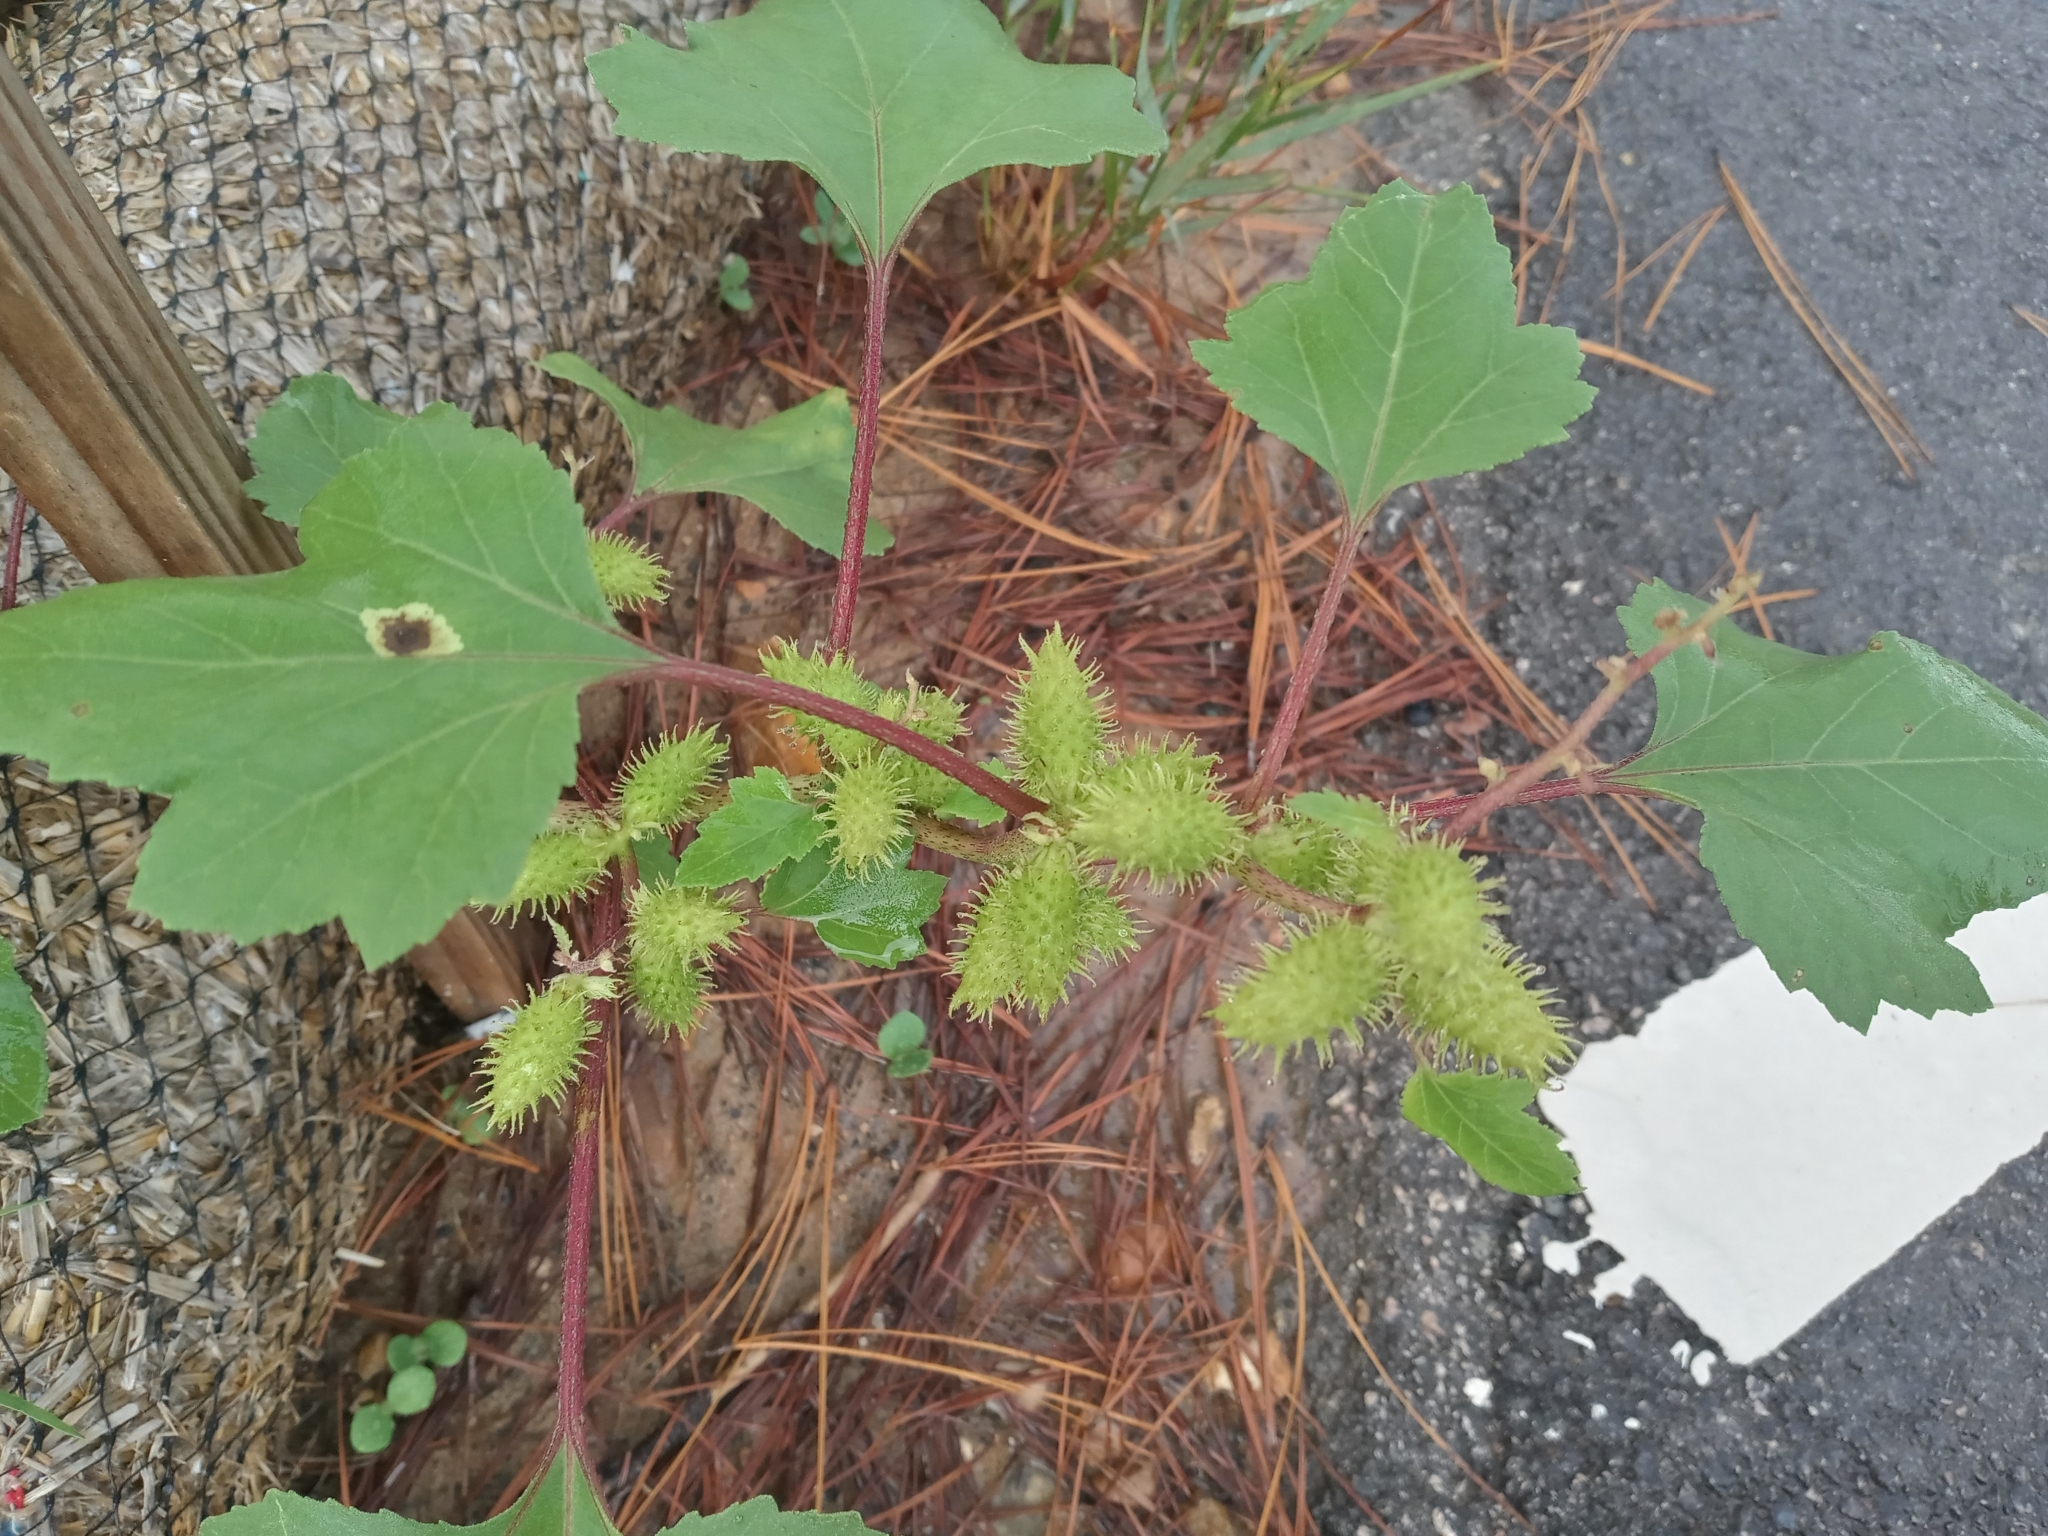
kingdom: Plantae
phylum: Tracheophyta
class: Magnoliopsida
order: Asterales
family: Asteraceae
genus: Xanthium
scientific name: Xanthium strumarium
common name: Rough cocklebur
